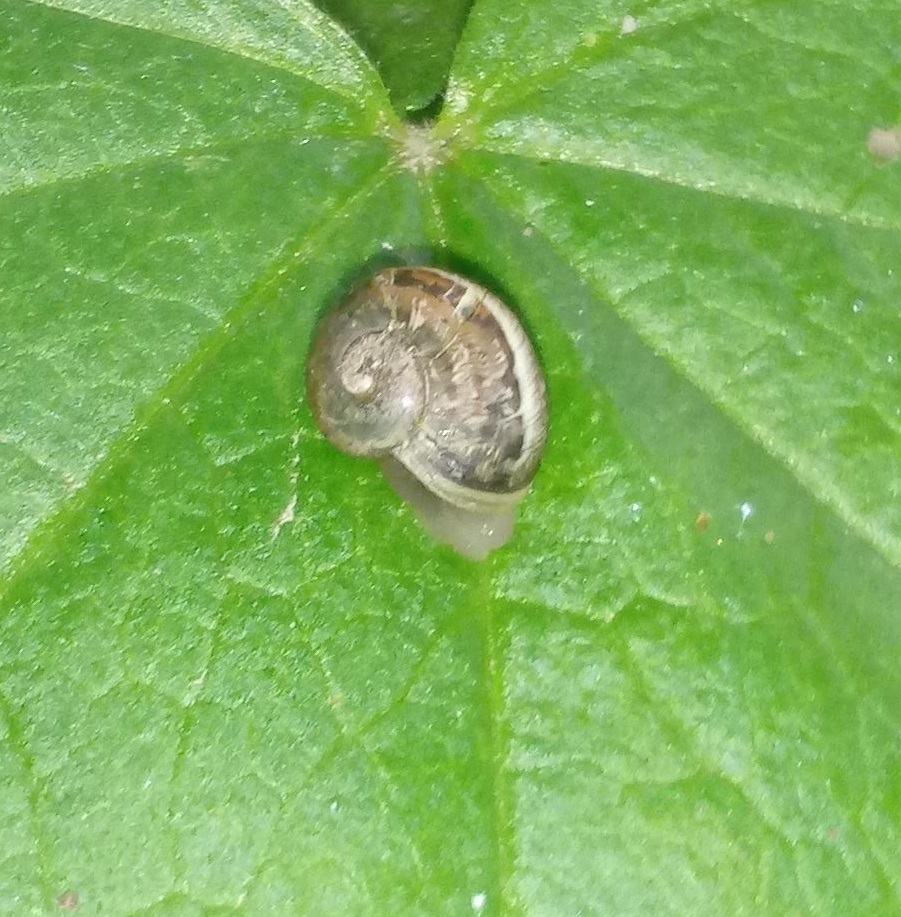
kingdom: Animalia
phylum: Mollusca
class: Gastropoda
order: Stylommatophora
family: Helicidae
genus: Cornu
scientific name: Cornu aspersum
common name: Brown garden snail
